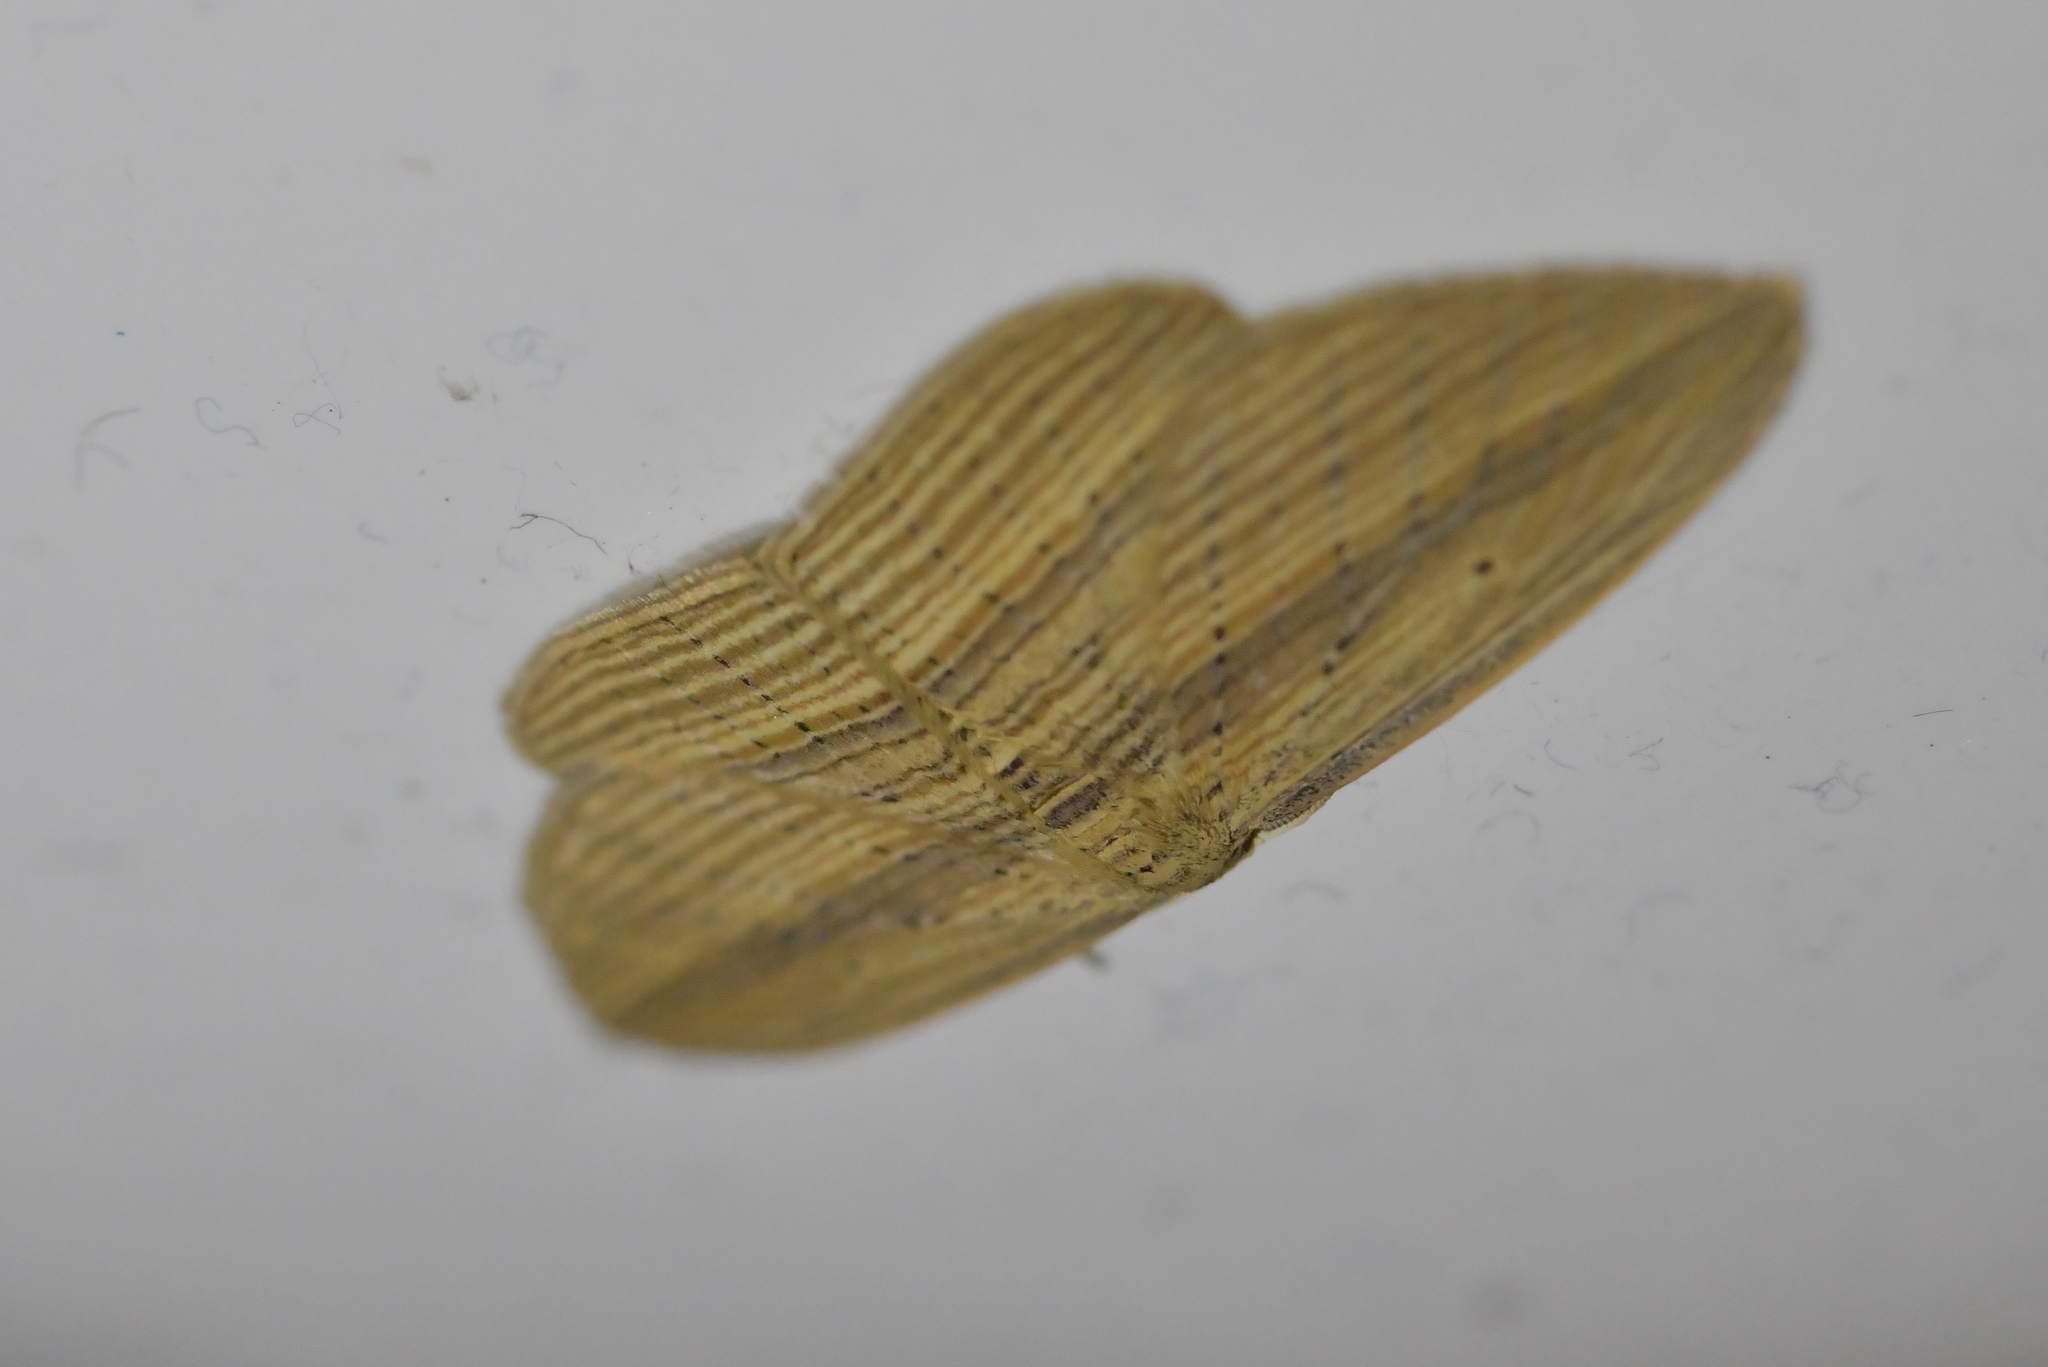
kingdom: Animalia
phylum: Arthropoda
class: Insecta
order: Lepidoptera
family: Geometridae
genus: Epiphryne
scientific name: Epiphryne verriculata
